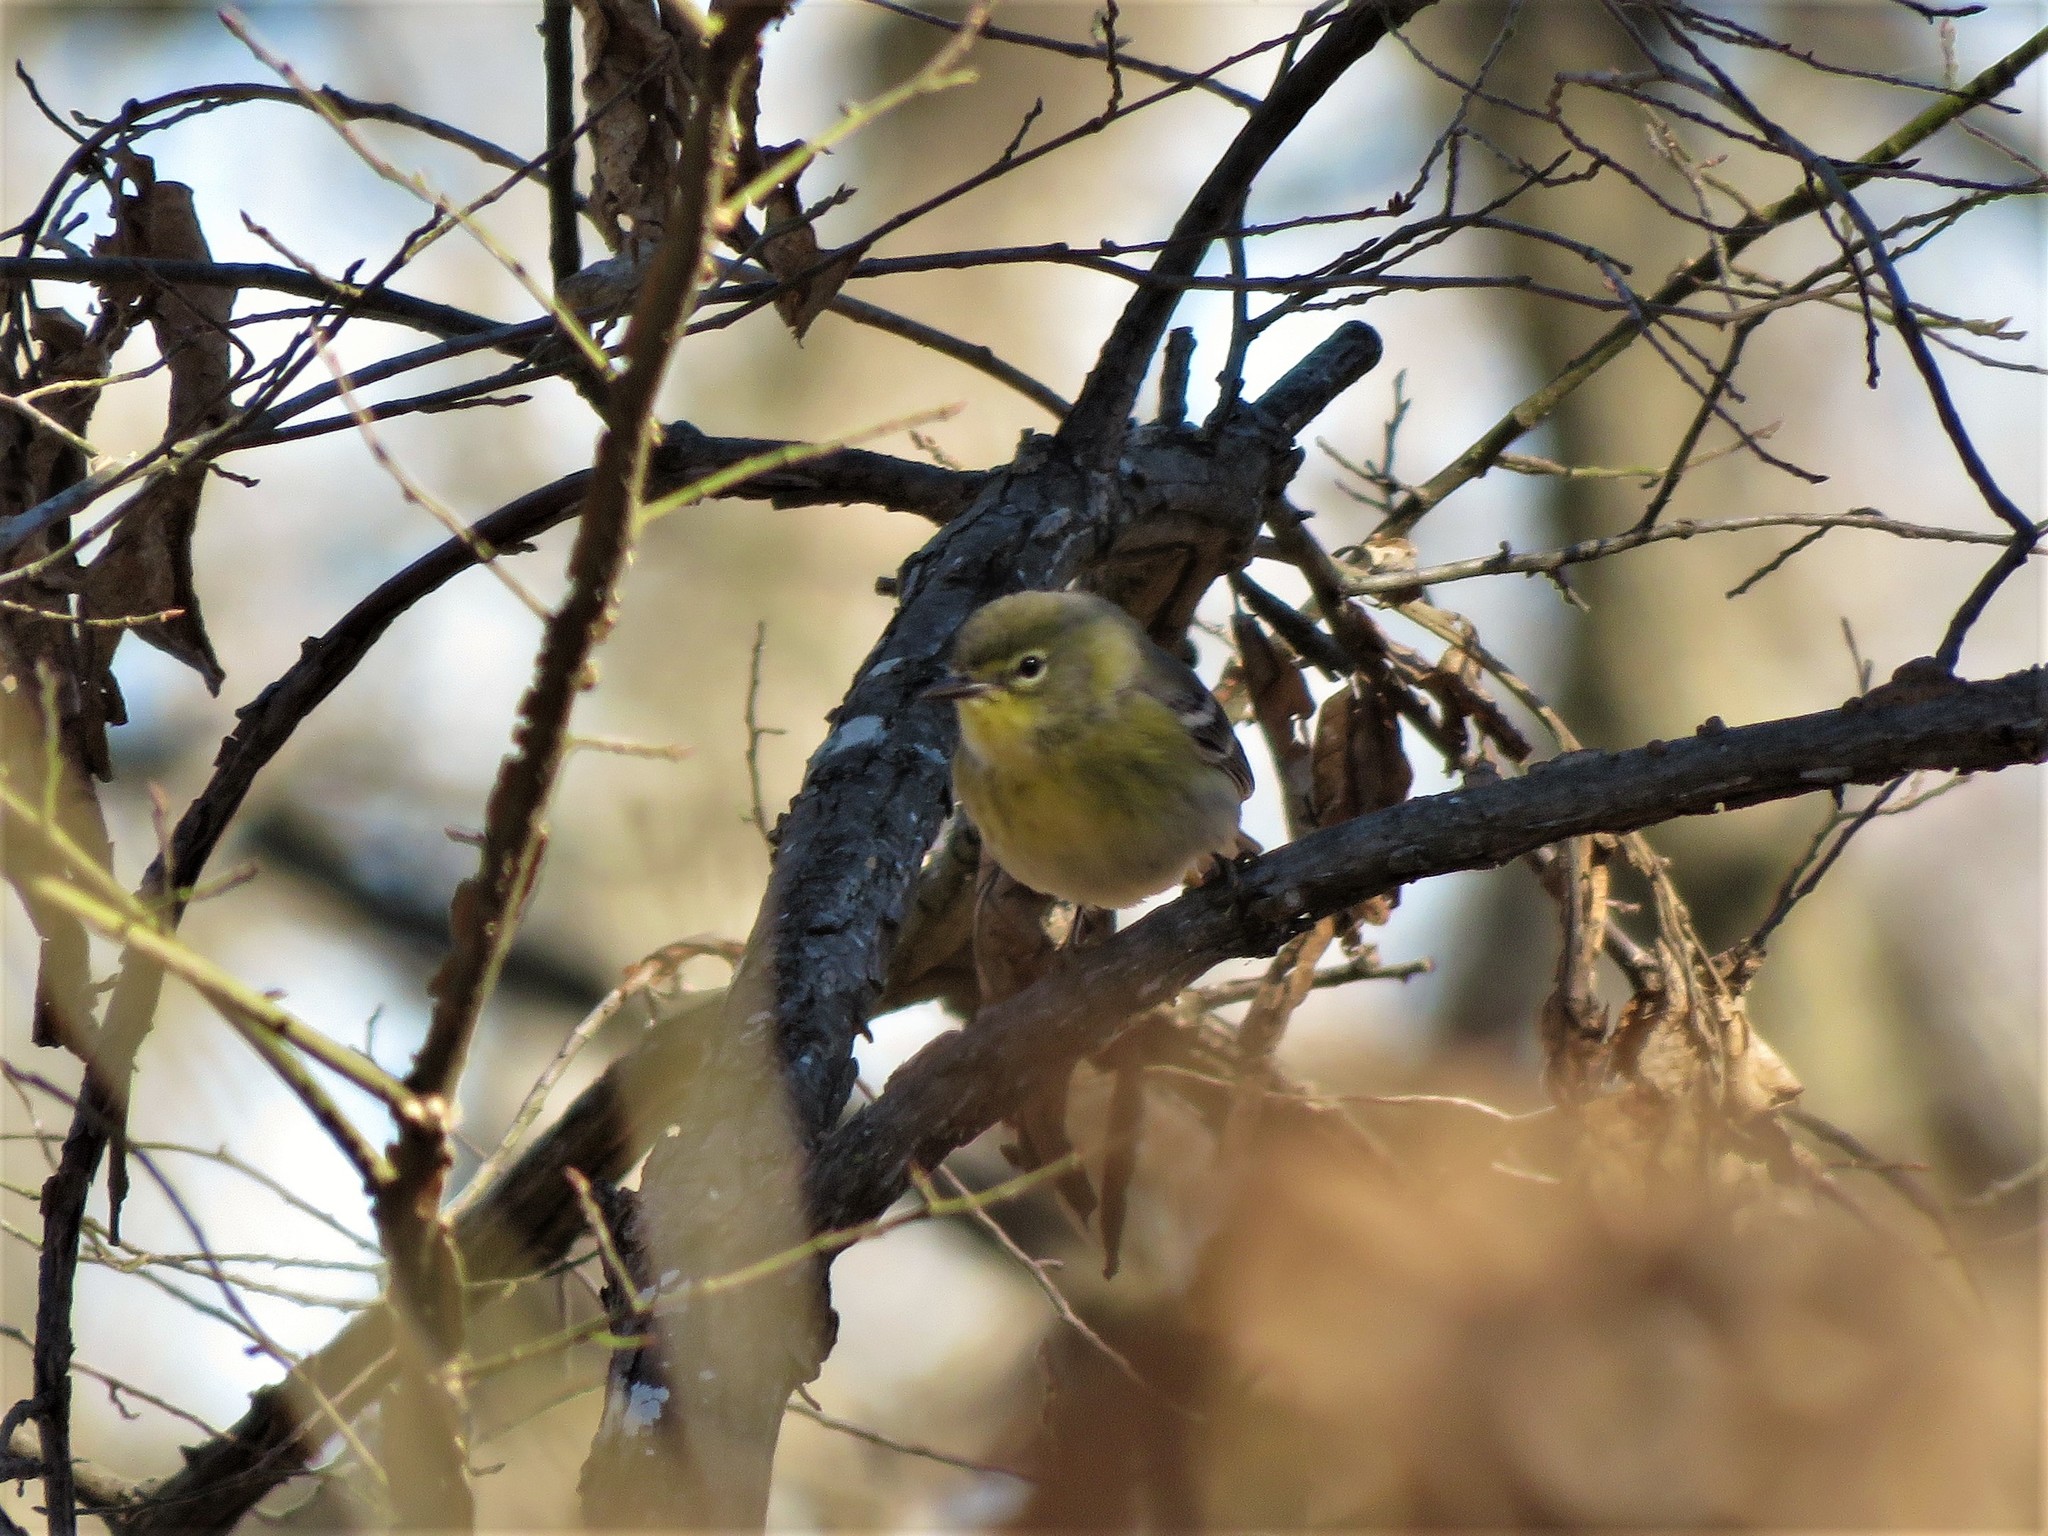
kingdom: Animalia
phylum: Chordata
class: Aves
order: Passeriformes
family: Parulidae
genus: Setophaga
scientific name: Setophaga pinus
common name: Pine warbler
